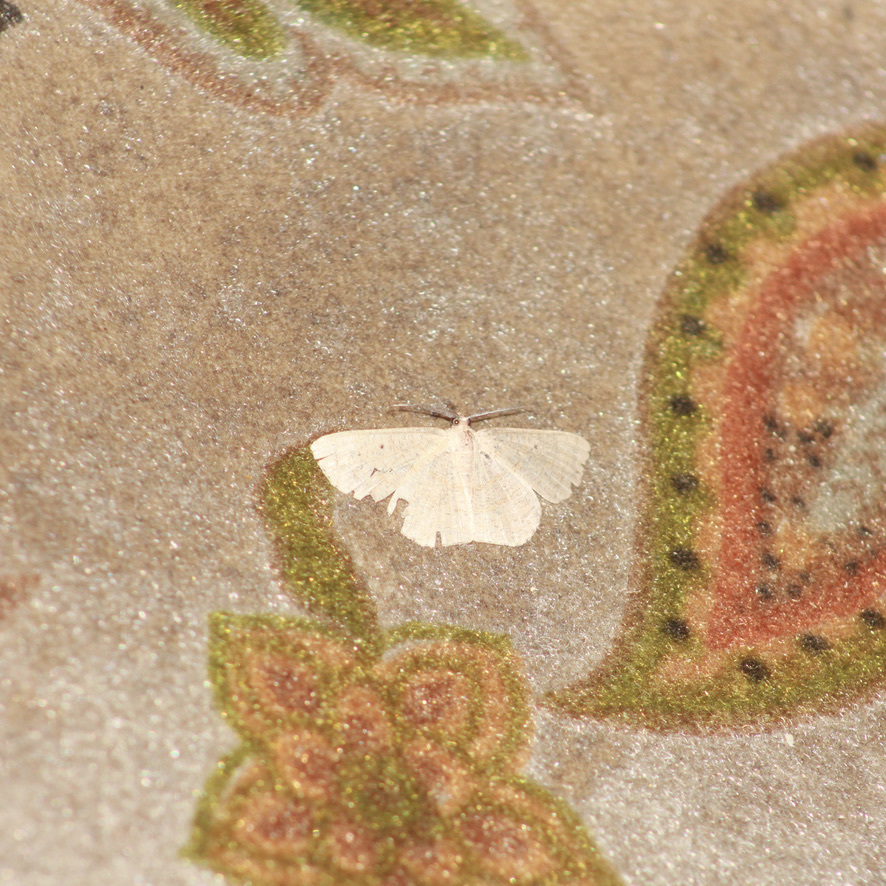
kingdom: Animalia
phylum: Arthropoda
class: Insecta
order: Lepidoptera
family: Geometridae
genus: Scopula
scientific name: Scopula apparitaria
